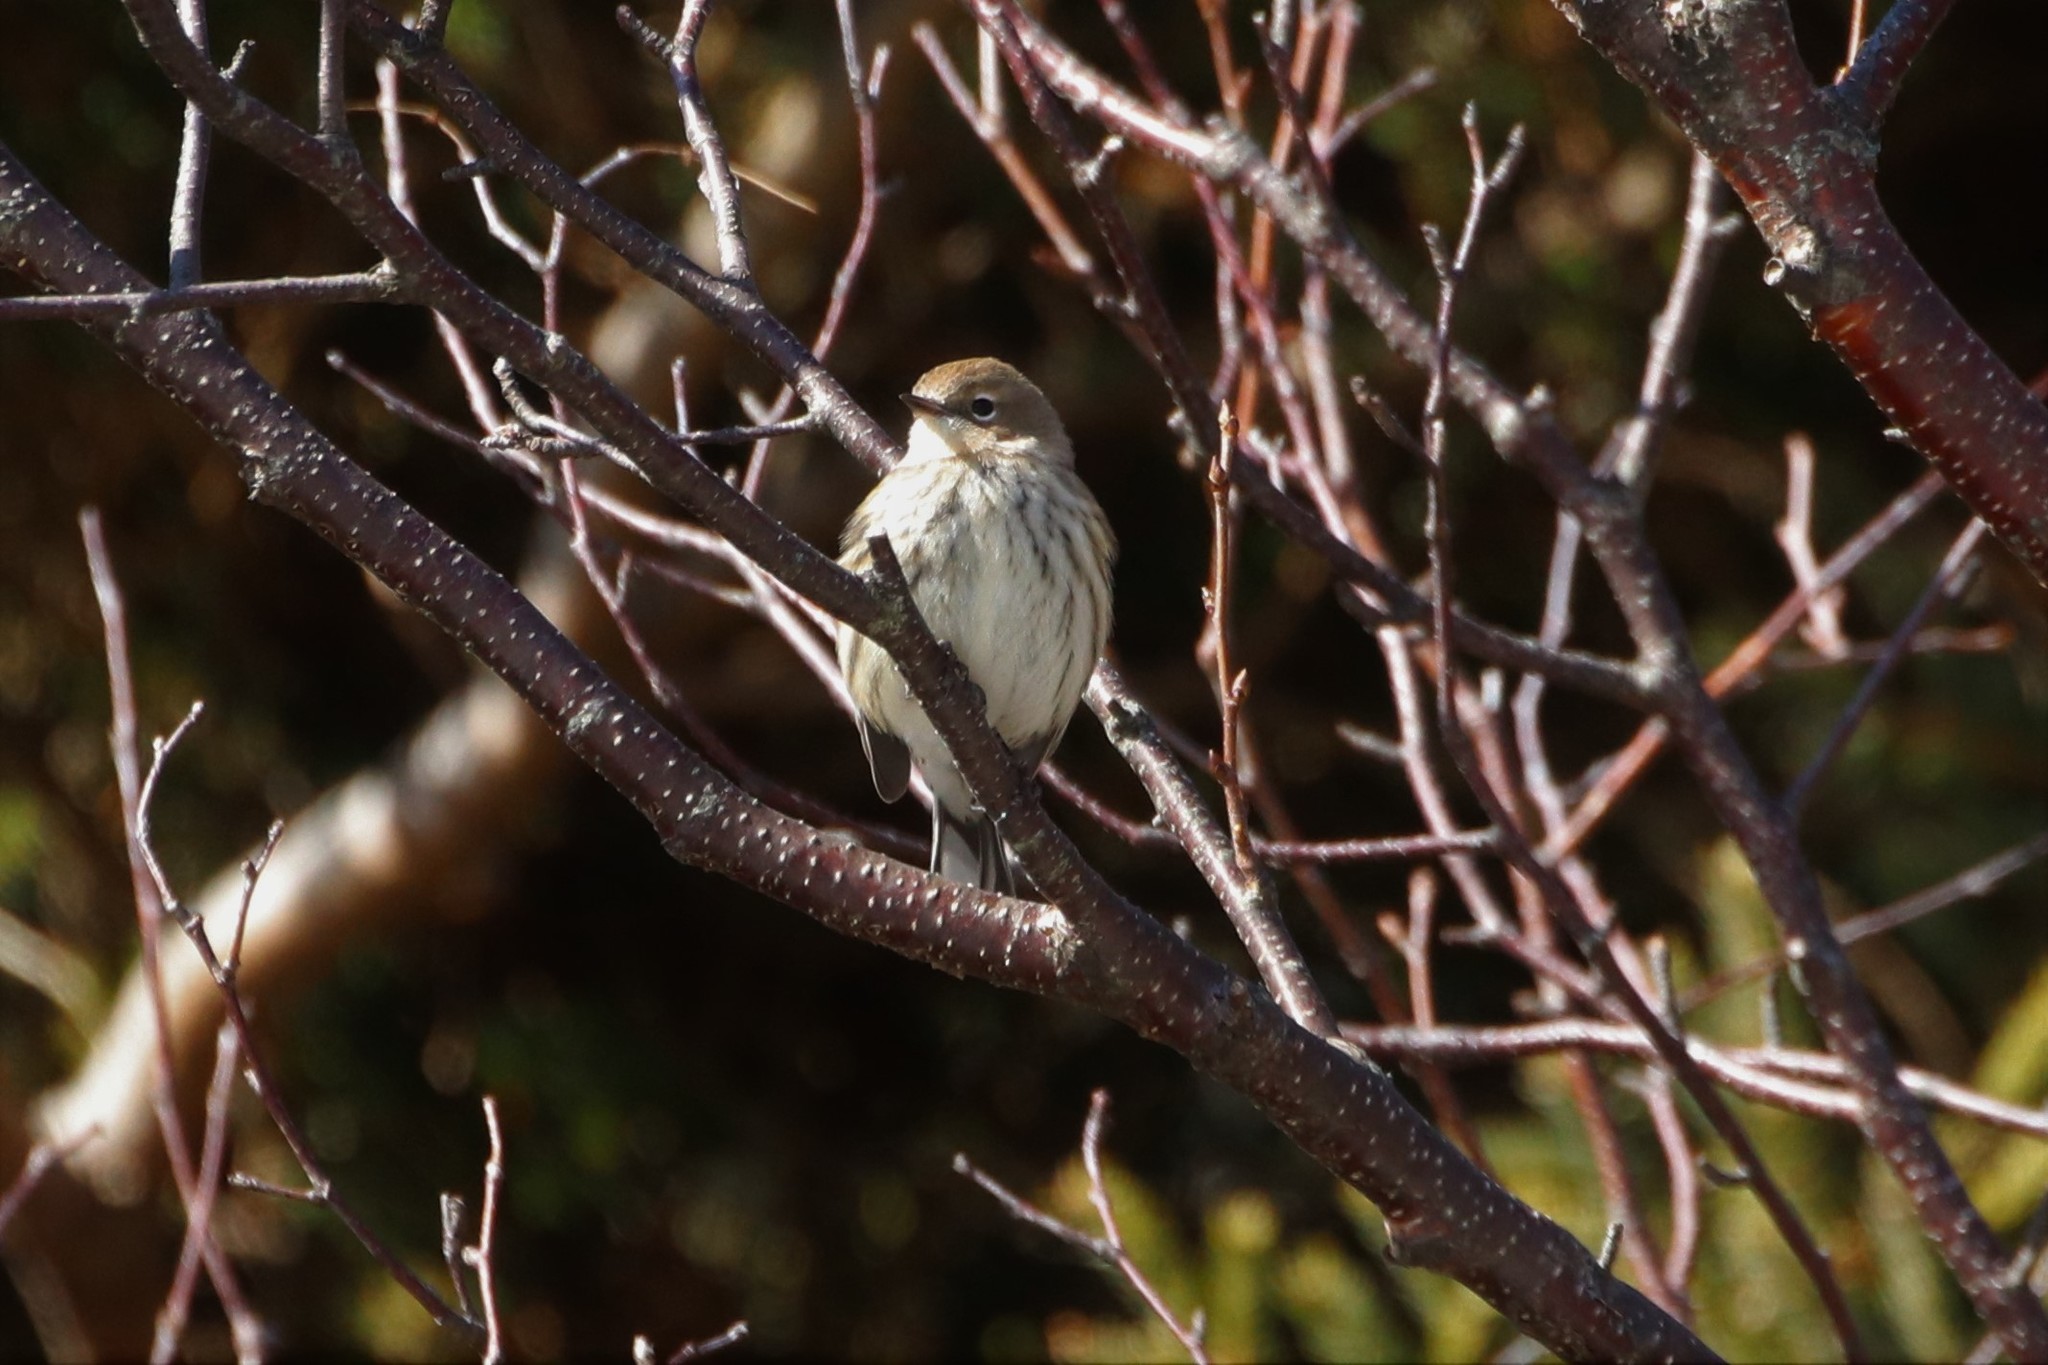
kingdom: Animalia
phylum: Chordata
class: Aves
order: Passeriformes
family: Parulidae
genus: Setophaga
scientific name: Setophaga coronata
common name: Myrtle warbler
